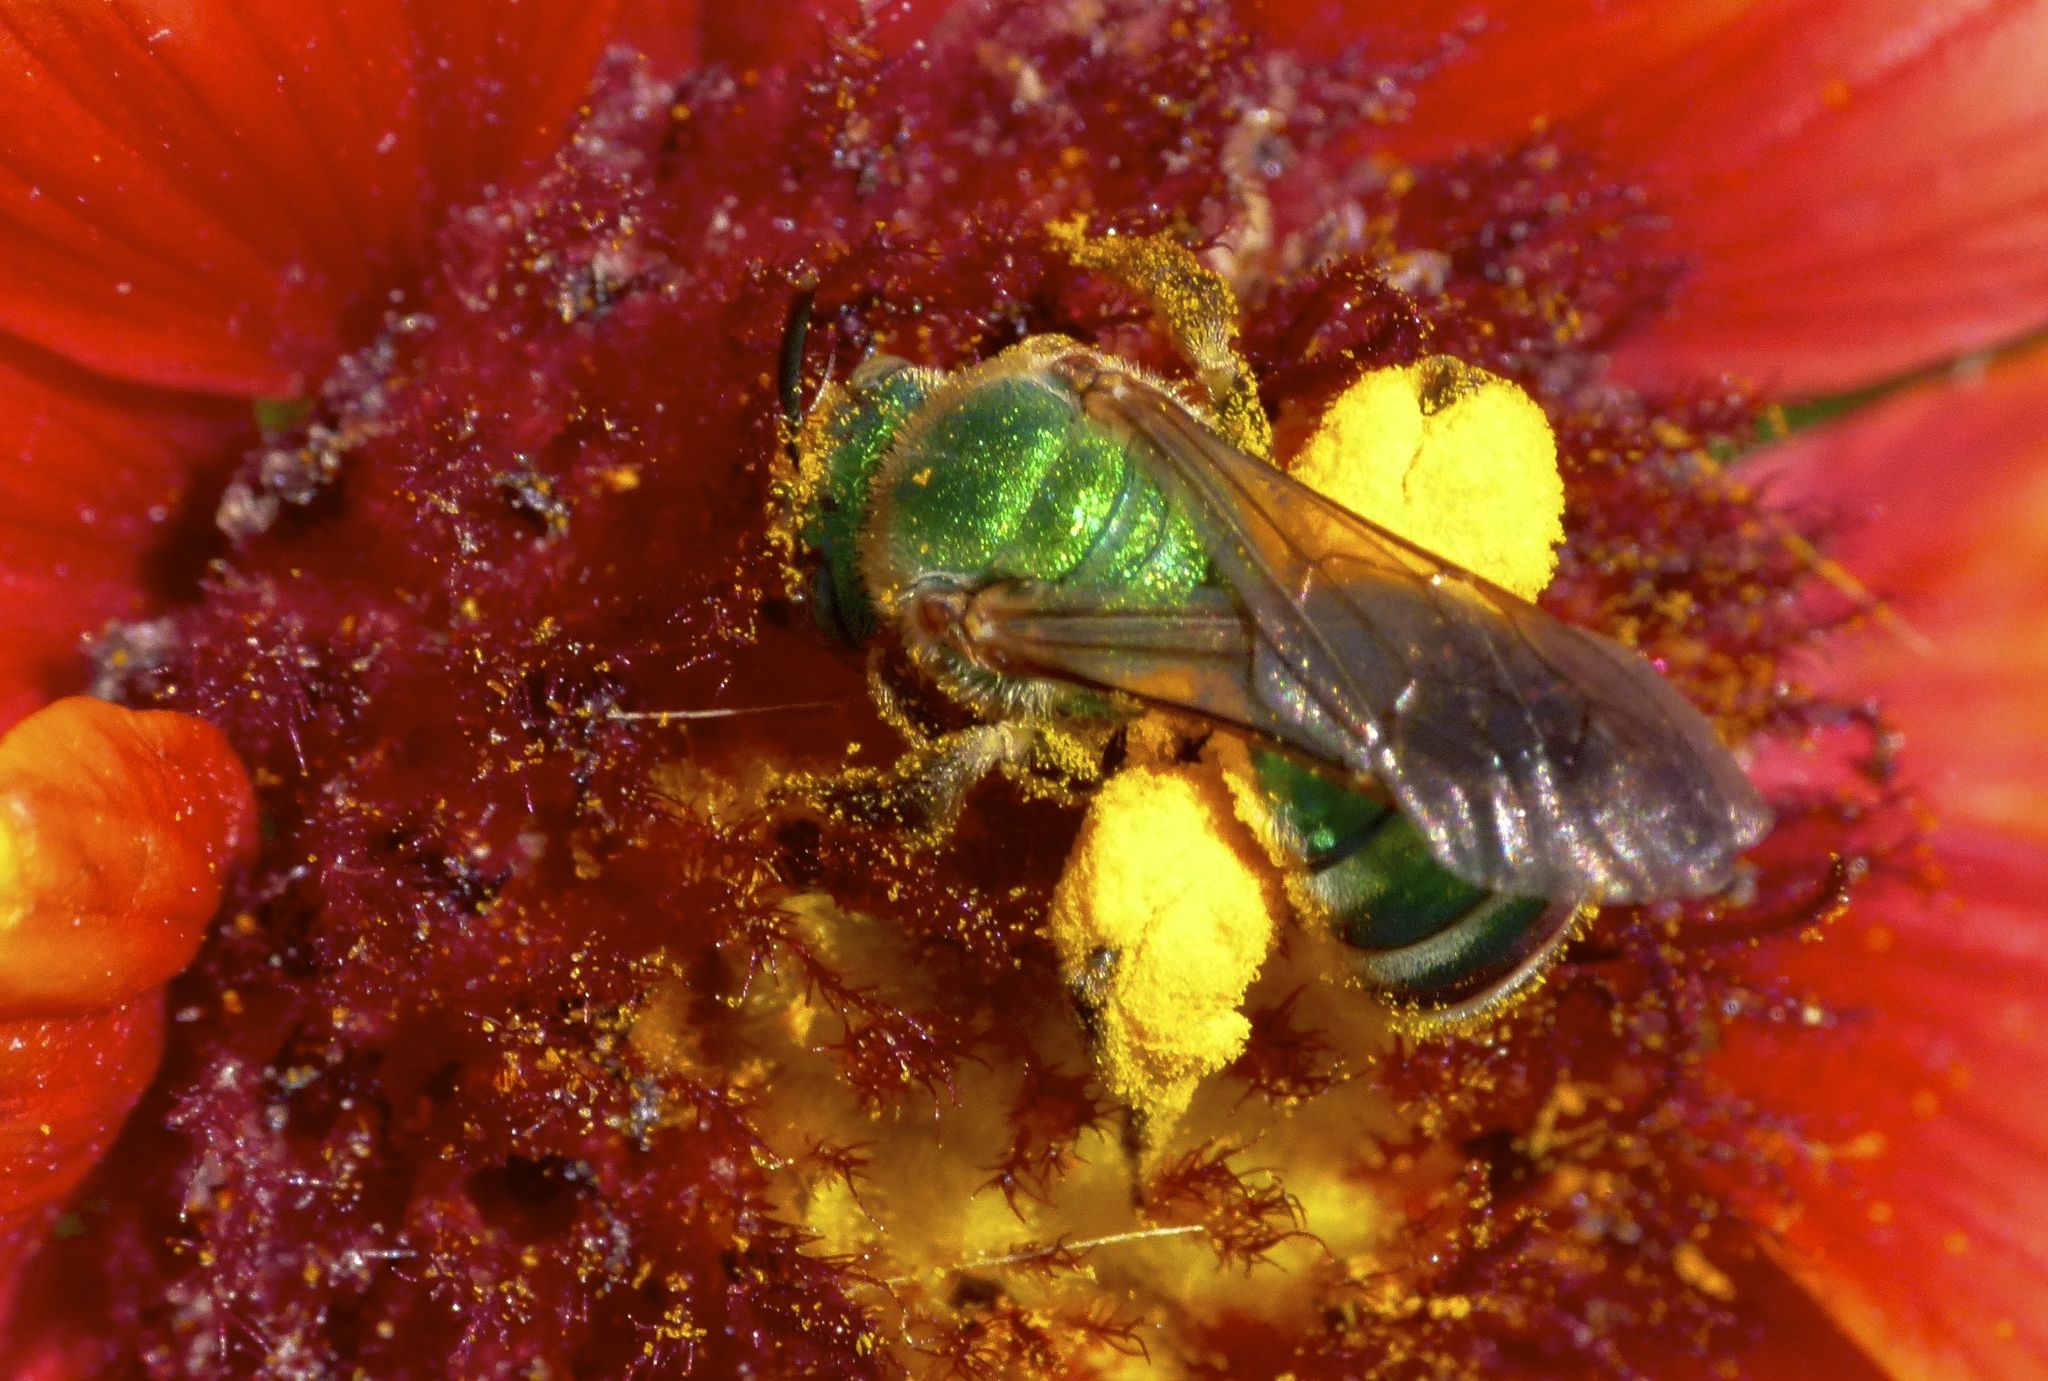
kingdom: Animalia
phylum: Arthropoda
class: Insecta
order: Hymenoptera
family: Halictidae
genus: Agapostemon
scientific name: Agapostemon splendens
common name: Brown-winged striped sweat bee
